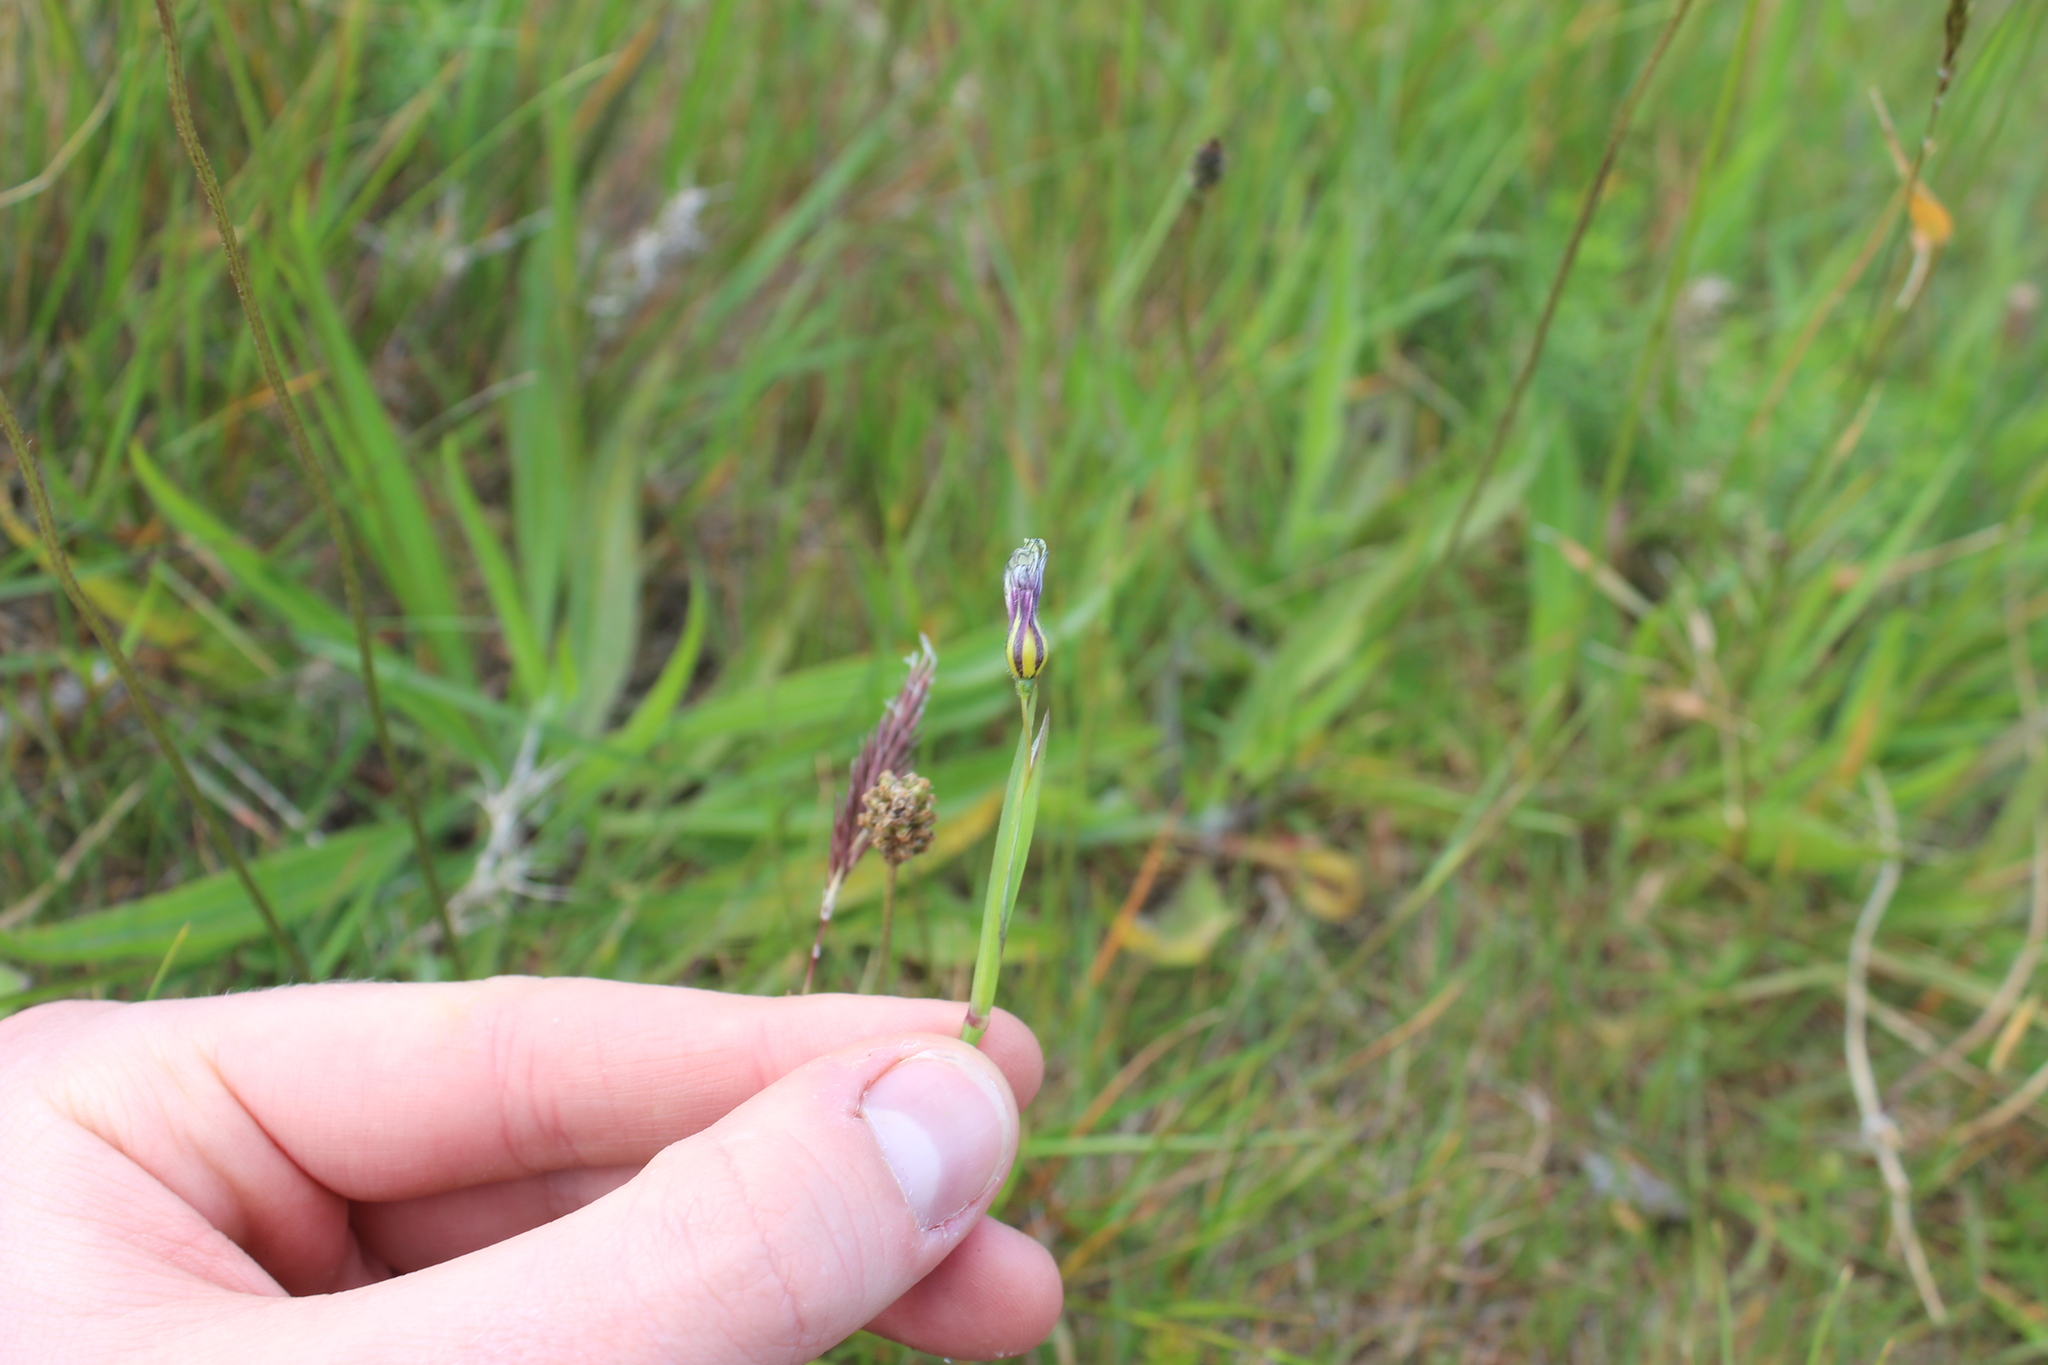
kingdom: Plantae
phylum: Tracheophyta
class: Liliopsida
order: Asparagales
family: Iridaceae
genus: Sisyrinchium
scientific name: Sisyrinchium micranthum
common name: Bermuda pigroot
